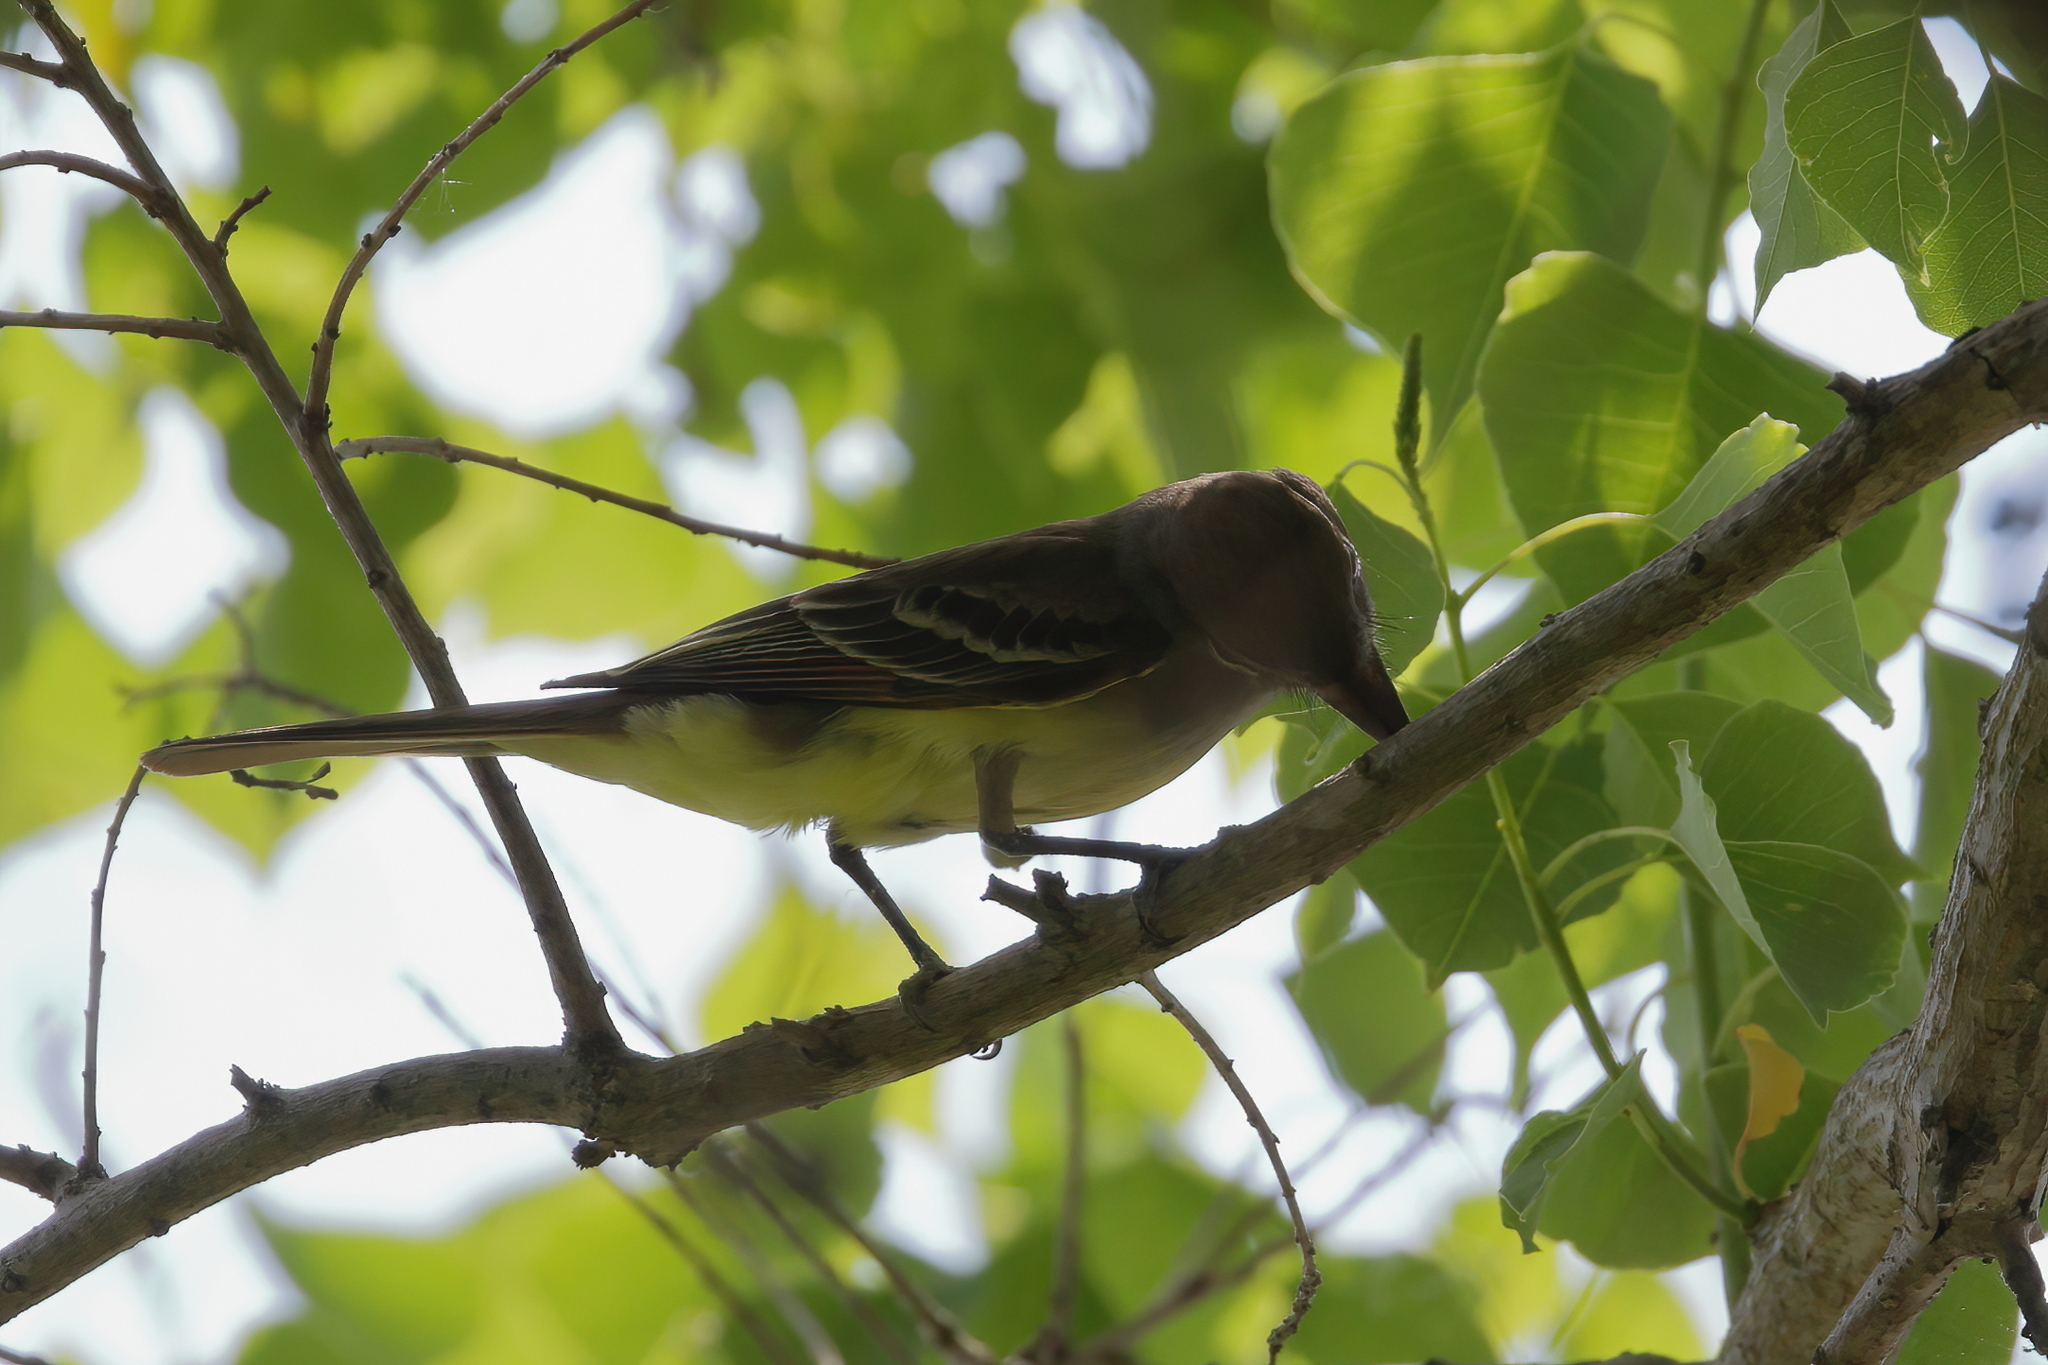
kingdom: Animalia
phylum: Chordata
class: Aves
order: Passeriformes
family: Tyrannidae
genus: Myiarchus
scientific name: Myiarchus crinitus
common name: Great crested flycatcher
